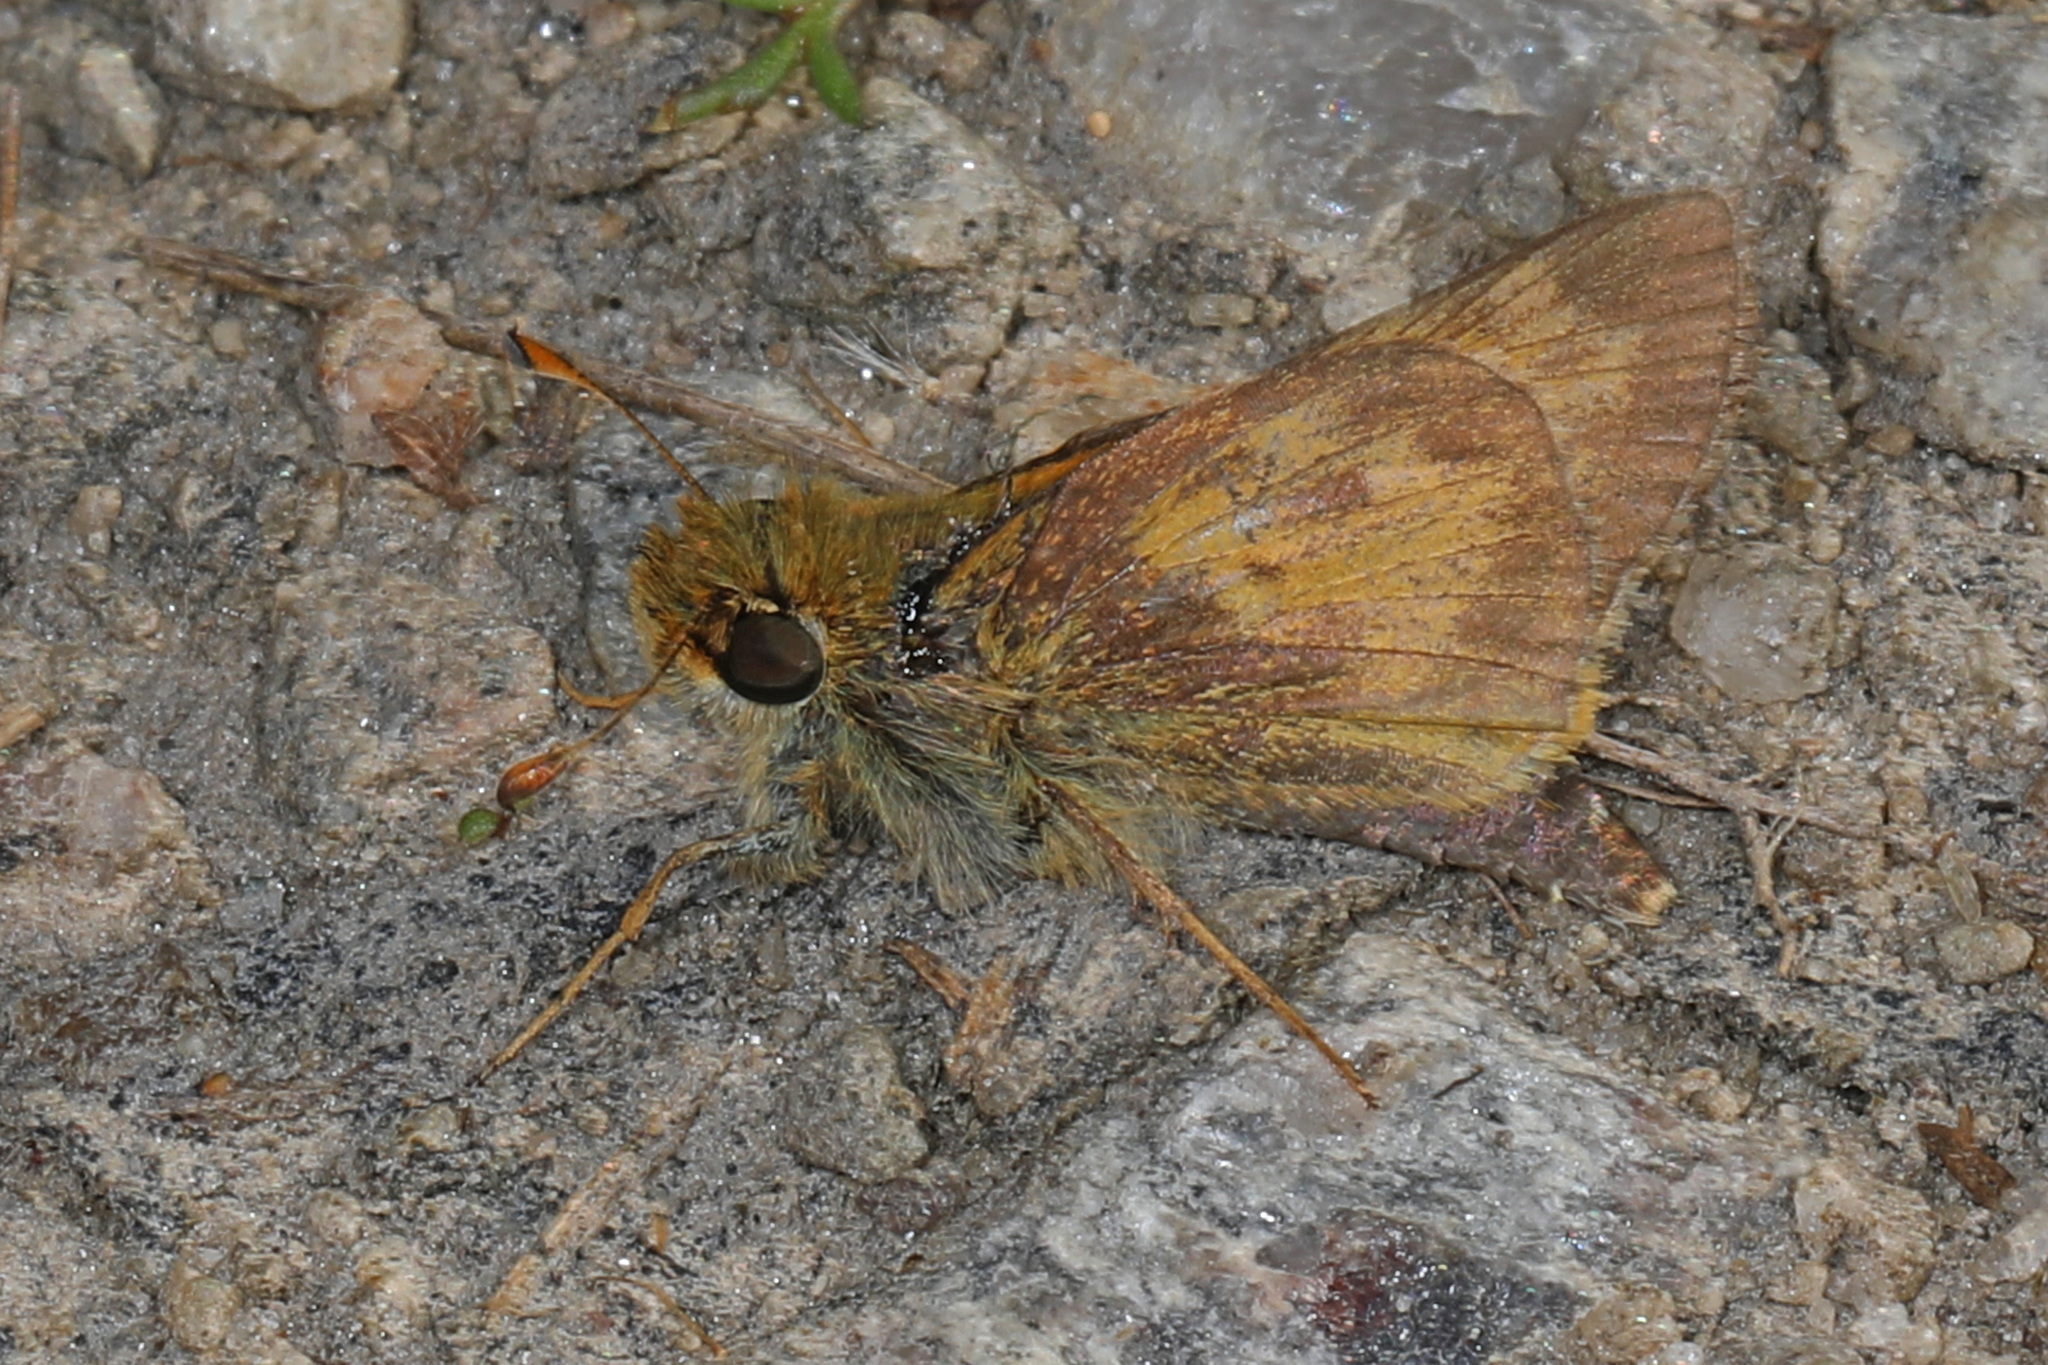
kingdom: Animalia
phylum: Arthropoda
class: Insecta
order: Lepidoptera
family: Hesperiidae
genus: Atalopedes
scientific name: Atalopedes
